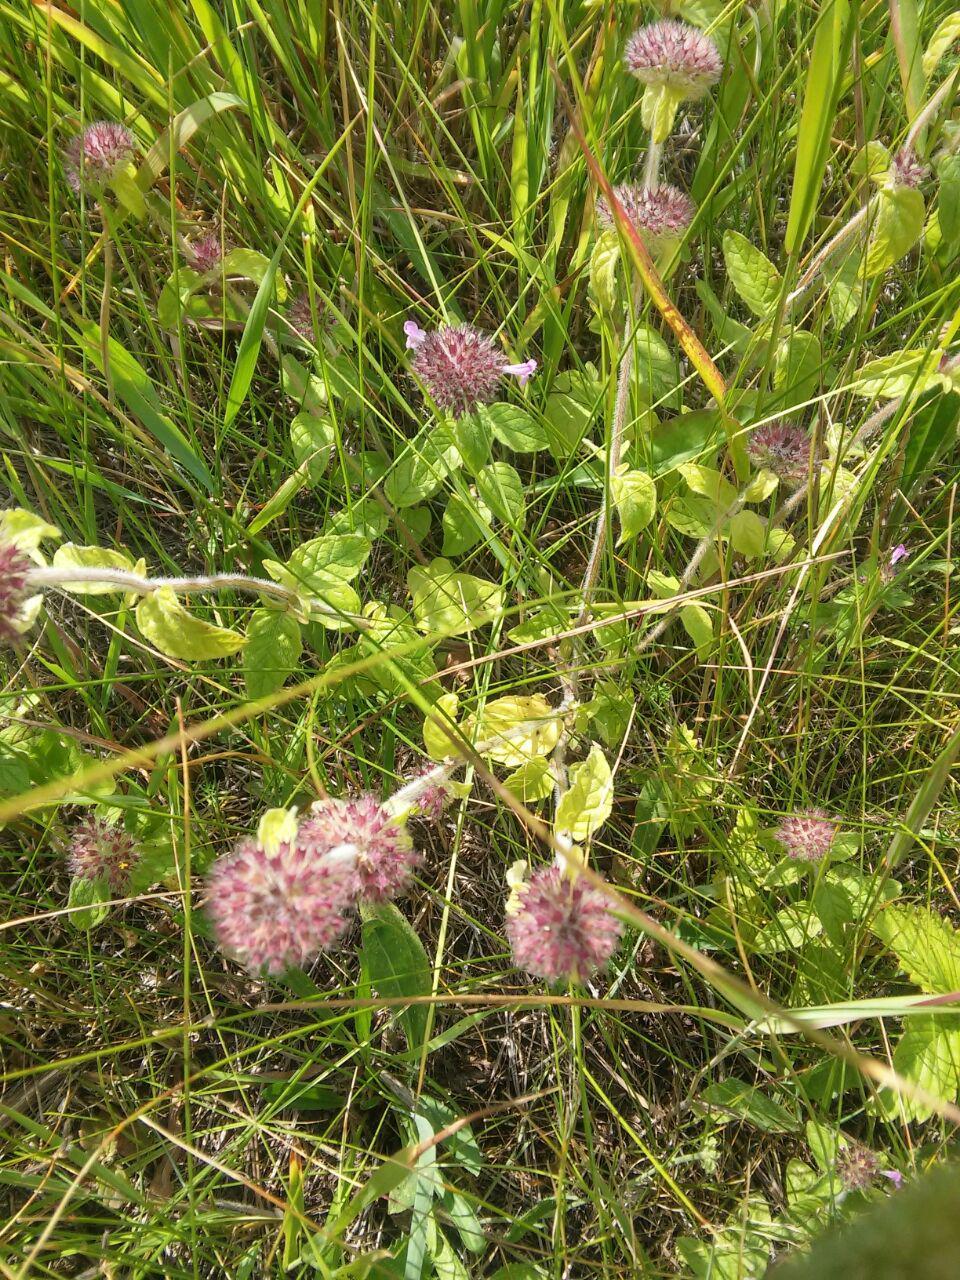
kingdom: Plantae
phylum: Tracheophyta
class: Magnoliopsida
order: Lamiales
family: Lamiaceae
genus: Clinopodium
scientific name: Clinopodium vulgare
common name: Wild basil
